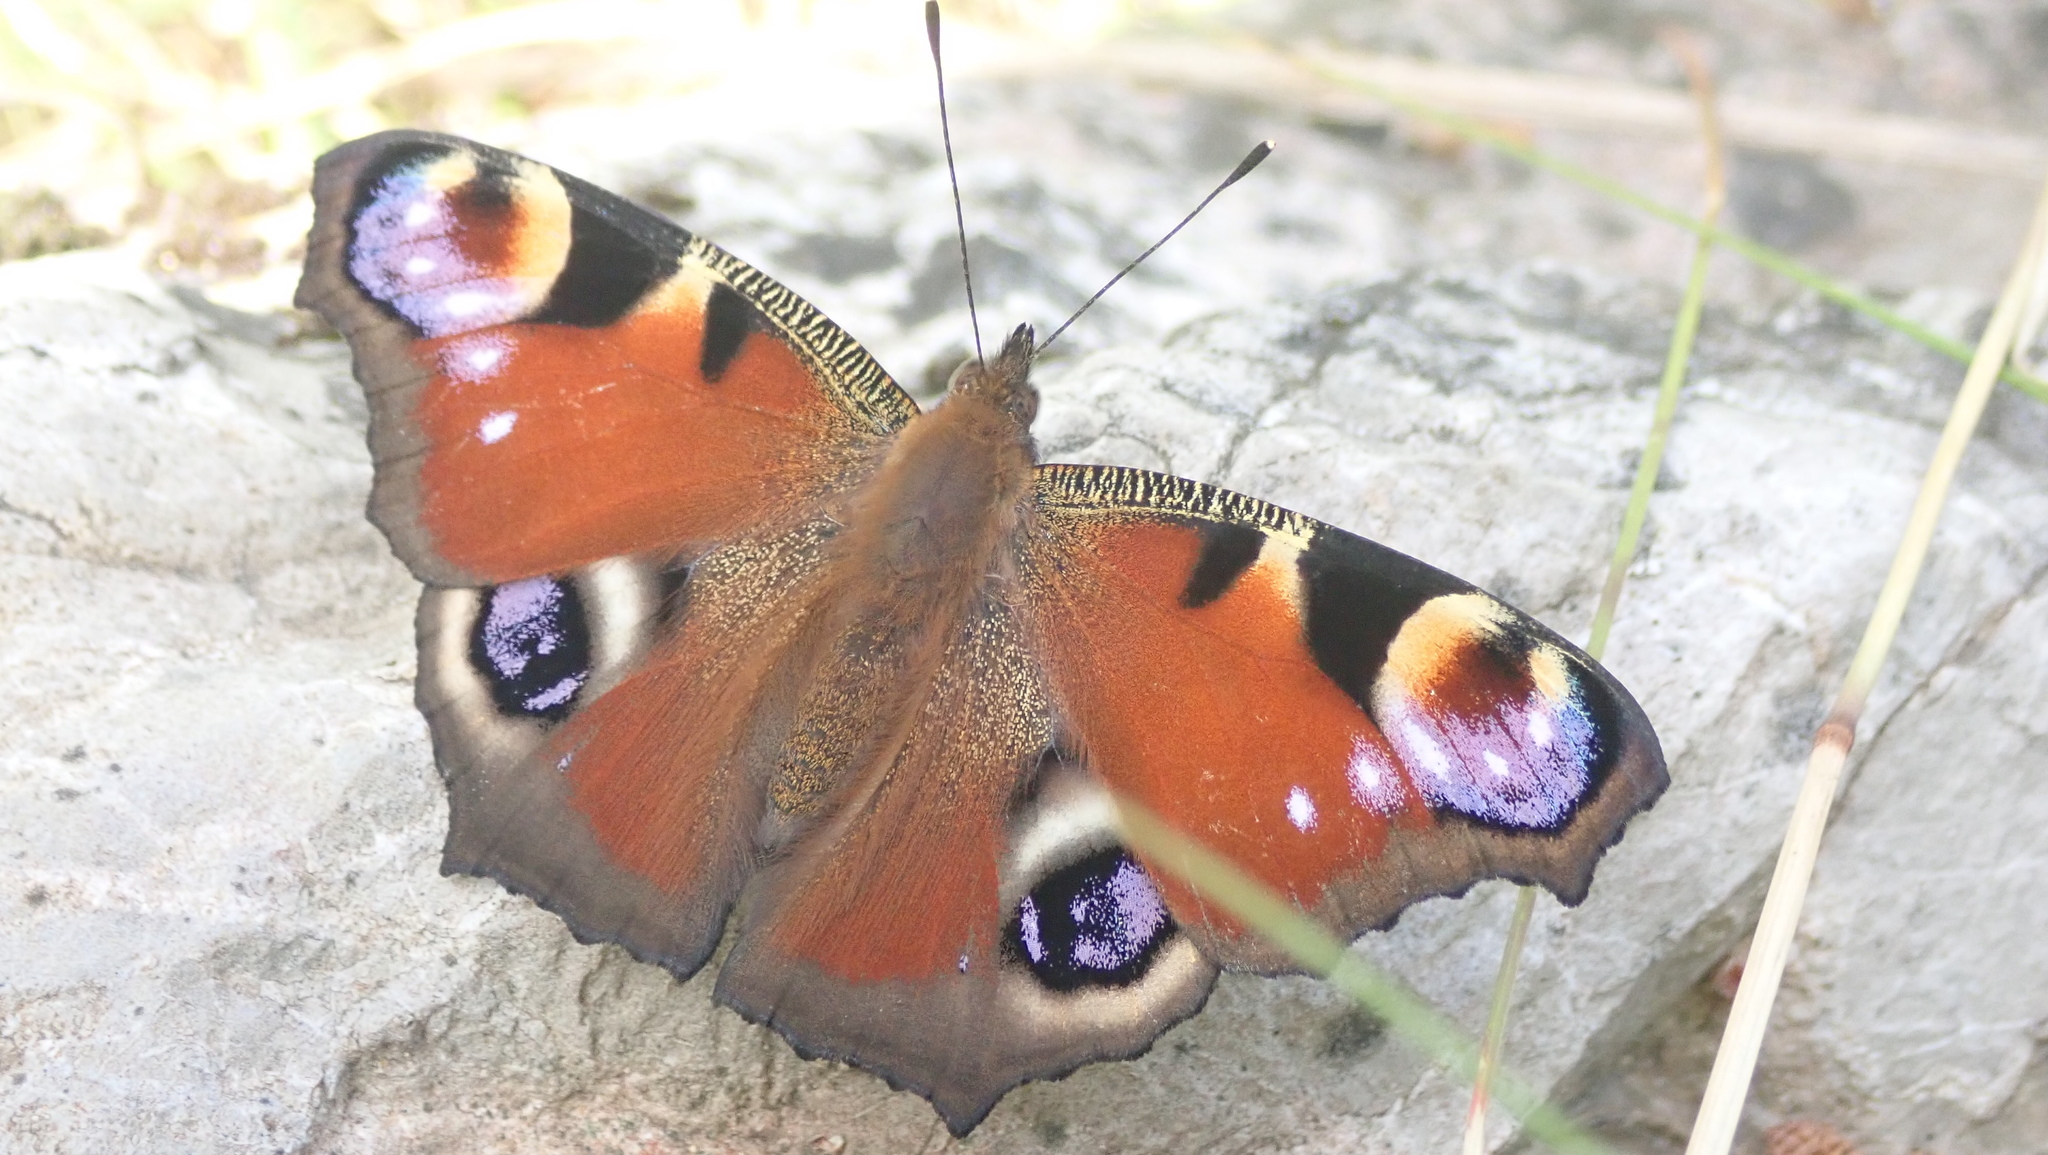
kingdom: Animalia
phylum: Arthropoda
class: Insecta
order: Lepidoptera
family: Nymphalidae
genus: Aglais
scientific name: Aglais io
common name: Peacock
